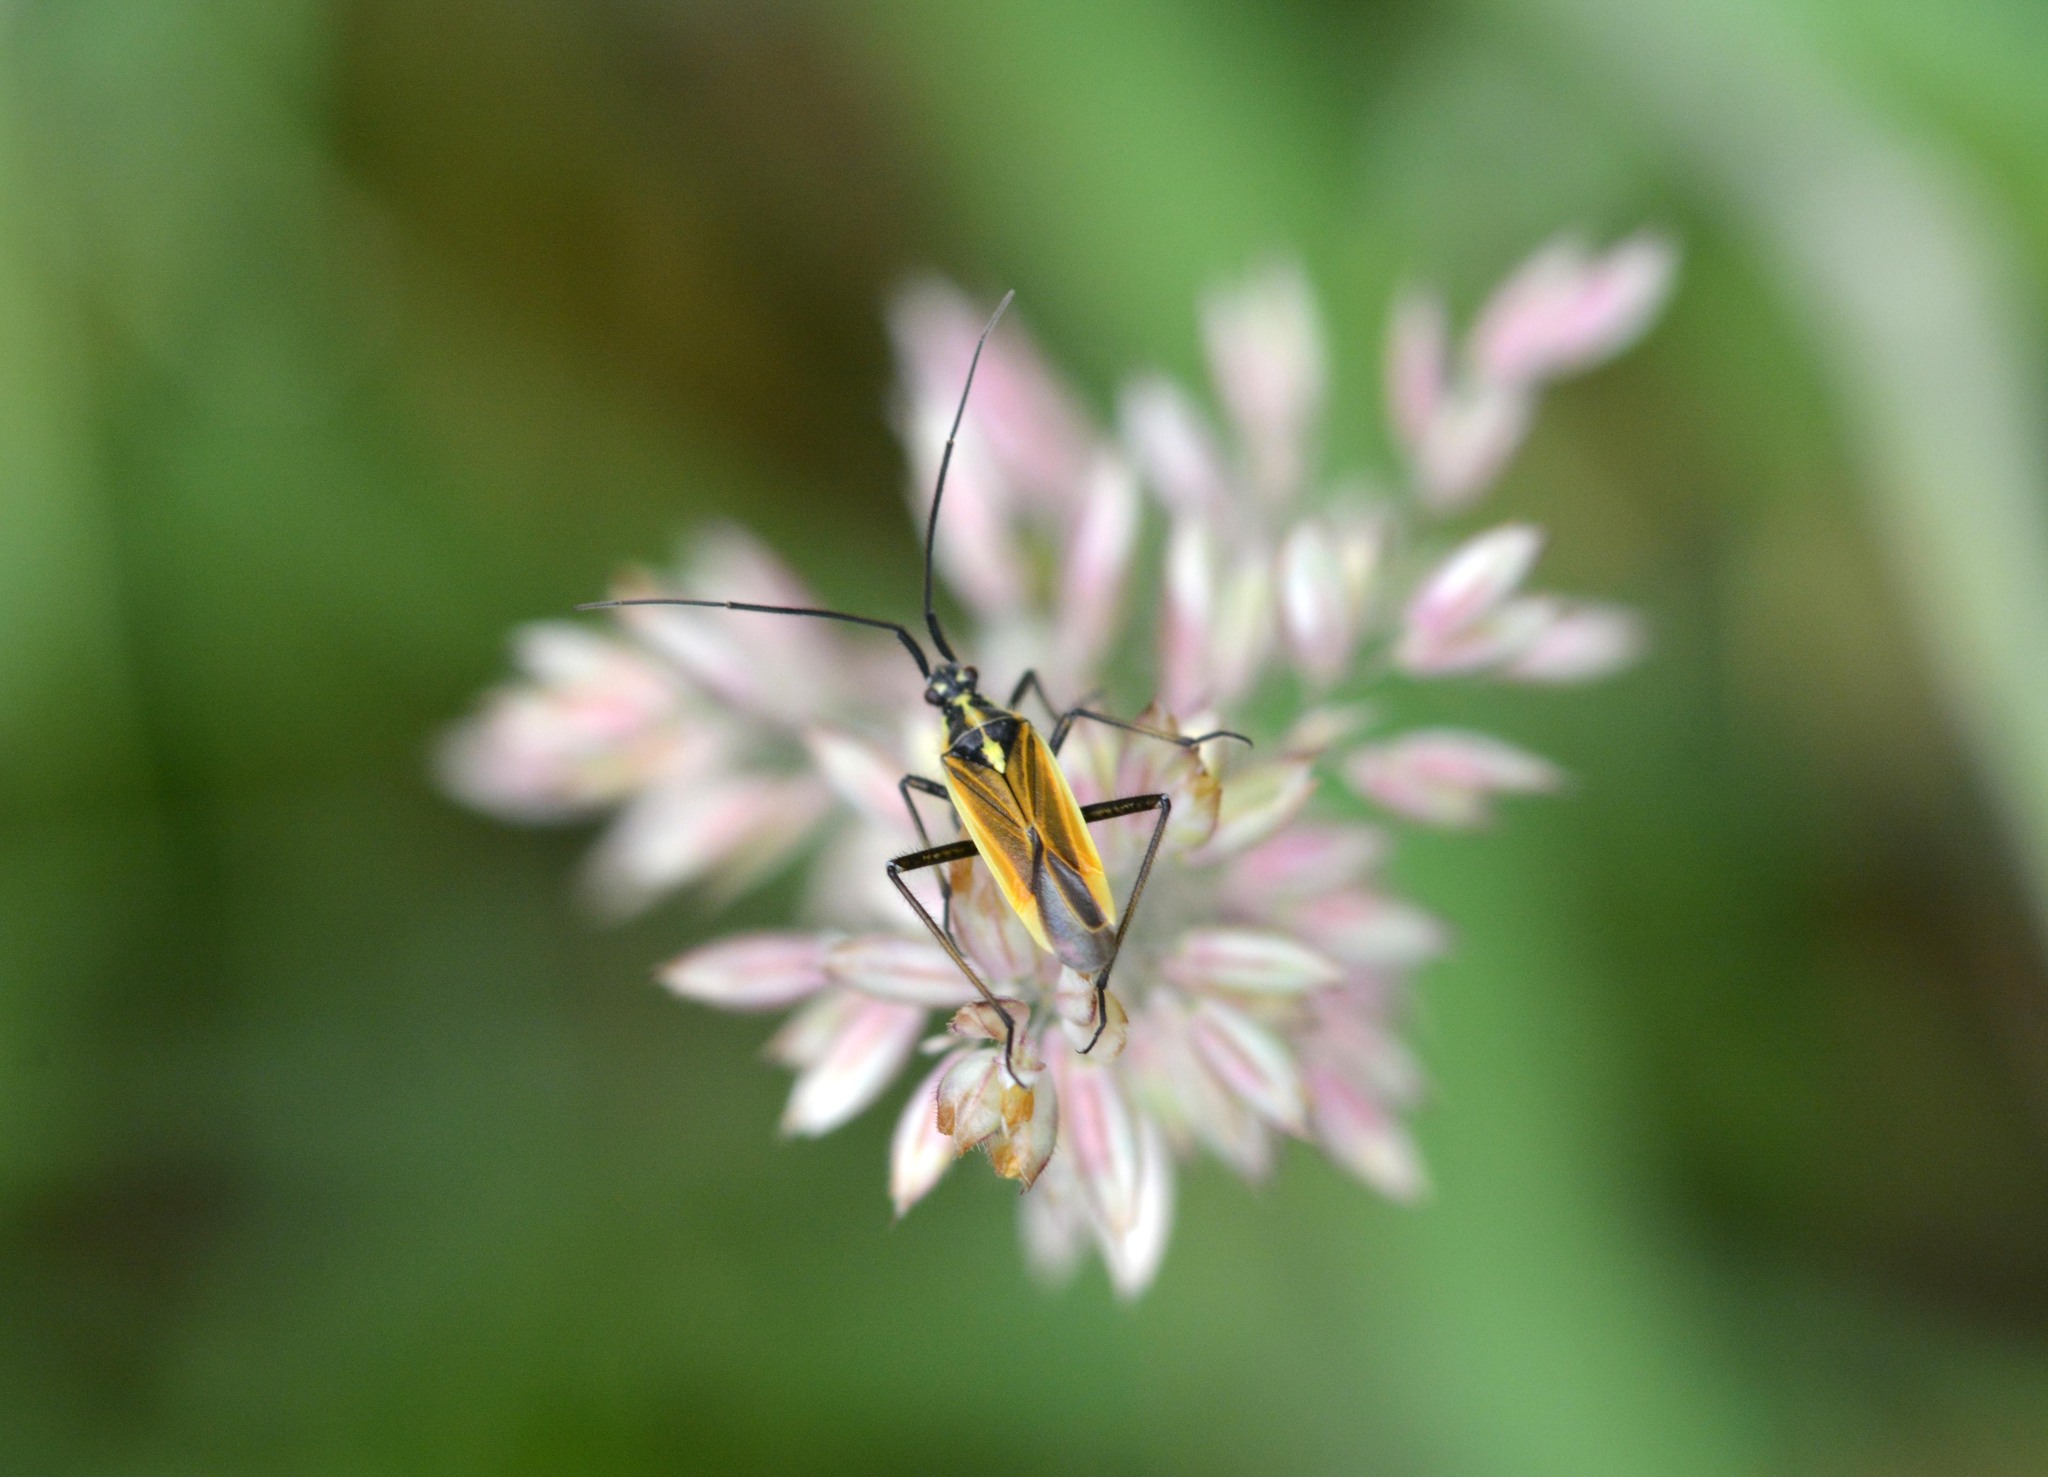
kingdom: Animalia
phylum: Arthropoda
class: Insecta
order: Hemiptera
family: Miridae
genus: Leptopterna
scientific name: Leptopterna dolabrata
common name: Meadow plant bug
